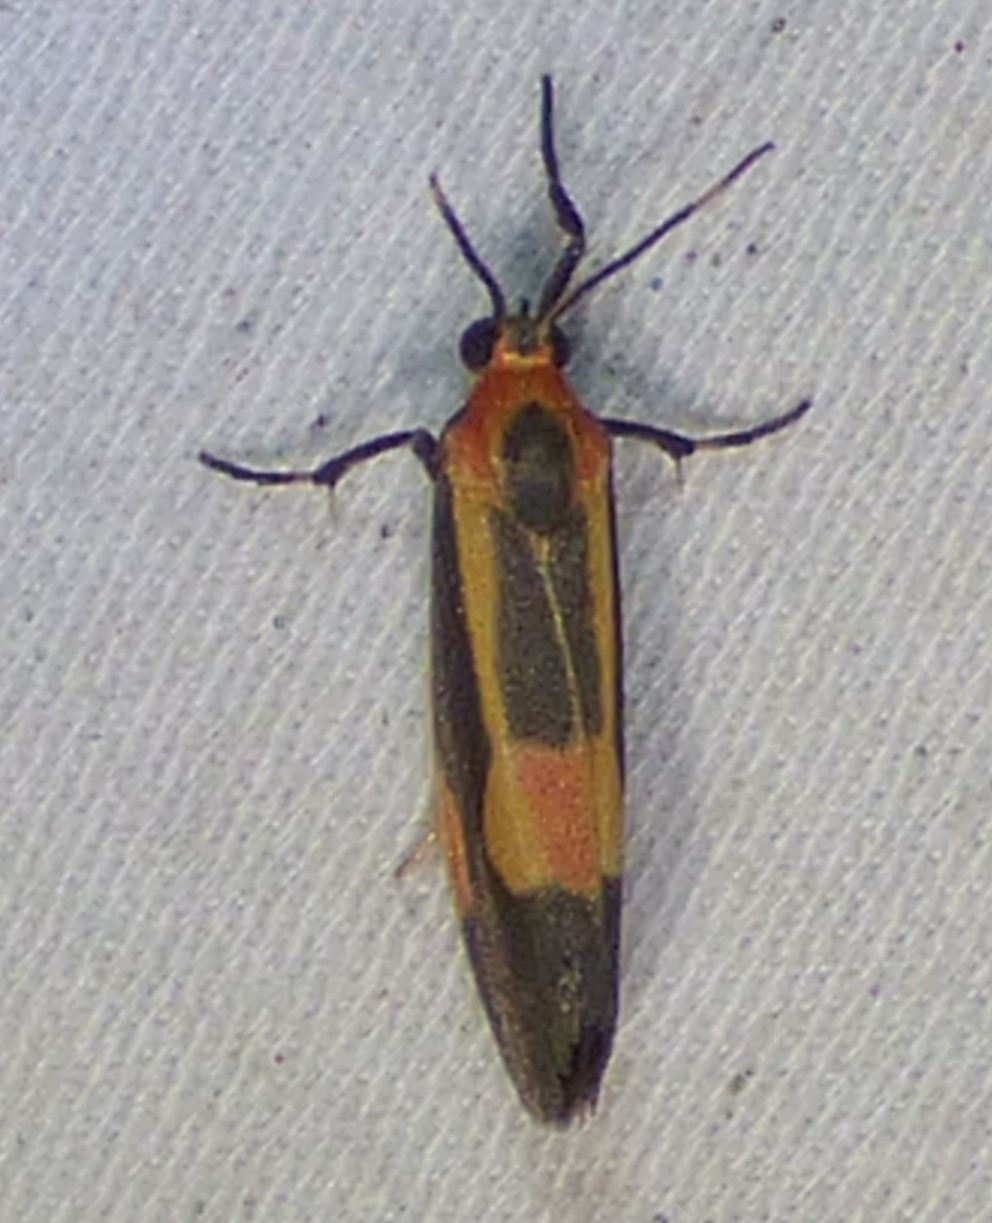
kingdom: Animalia
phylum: Arthropoda
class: Insecta
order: Lepidoptera
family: Erebidae
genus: Cisthene
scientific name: Cisthene packardii
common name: Packard's lichen moth
